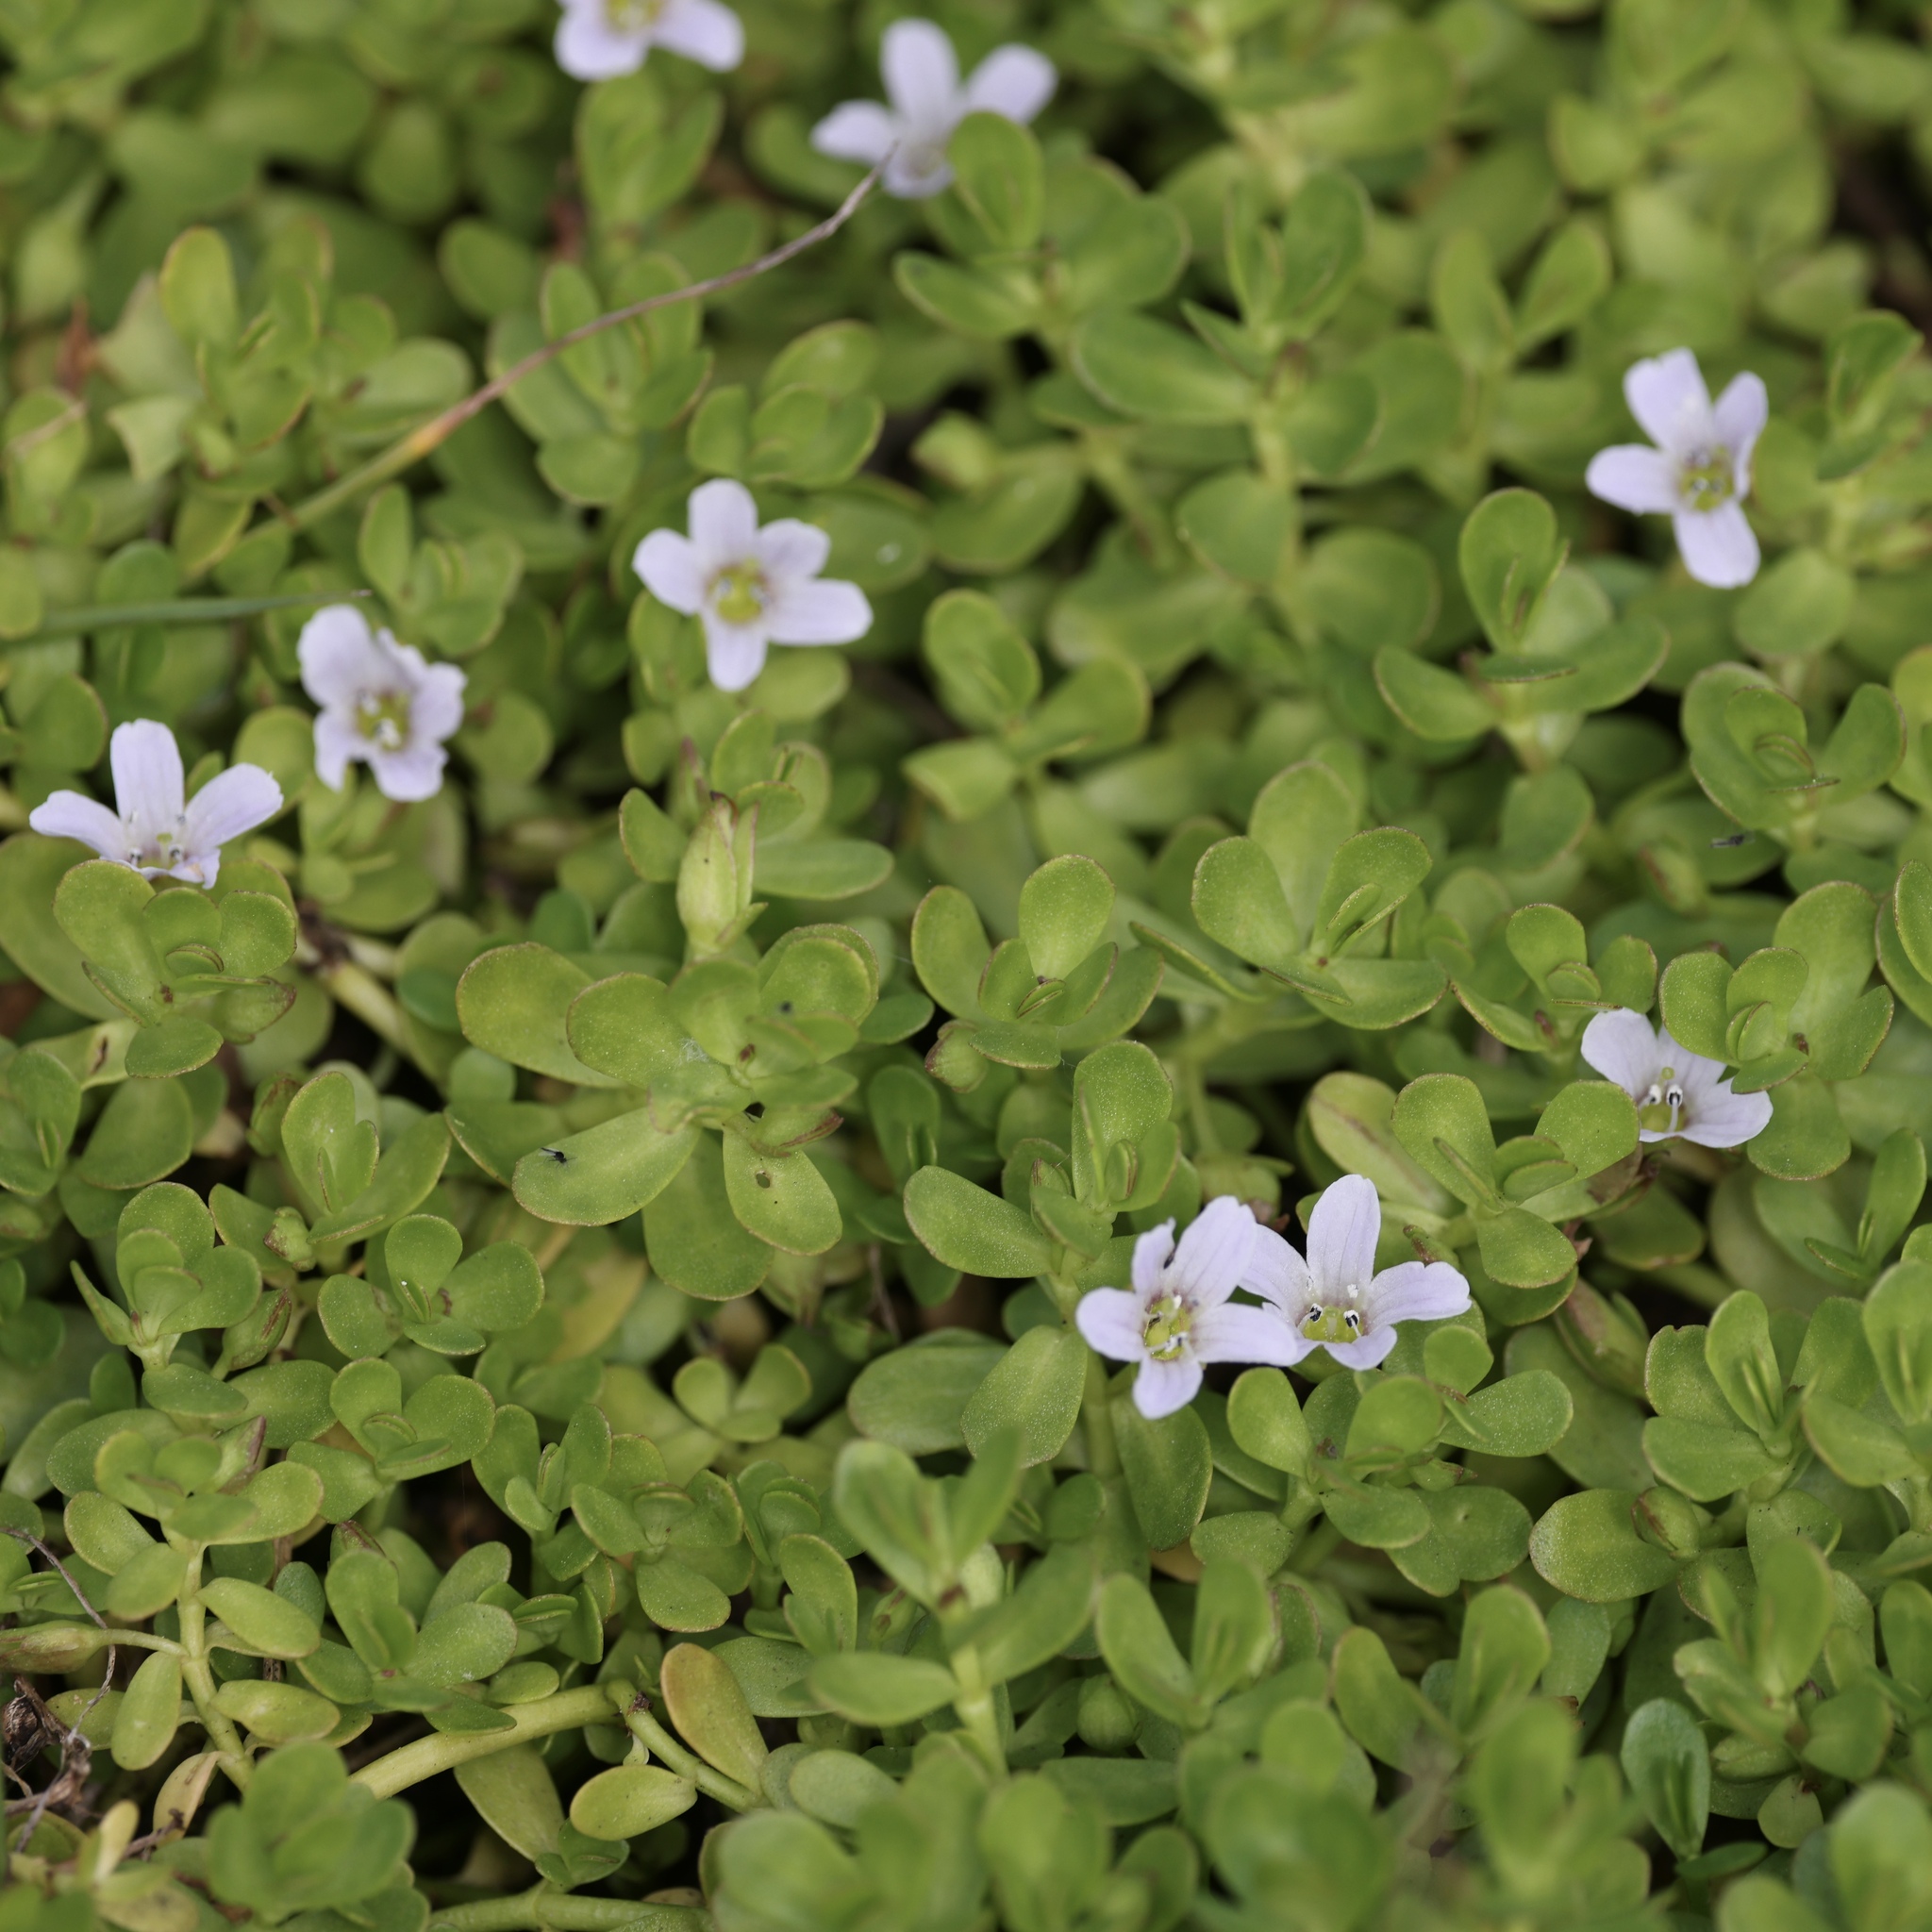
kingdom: Plantae
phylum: Tracheophyta
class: Magnoliopsida
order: Lamiales
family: Plantaginaceae
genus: Bacopa
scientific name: Bacopa monnieri
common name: Indian-pennywort
